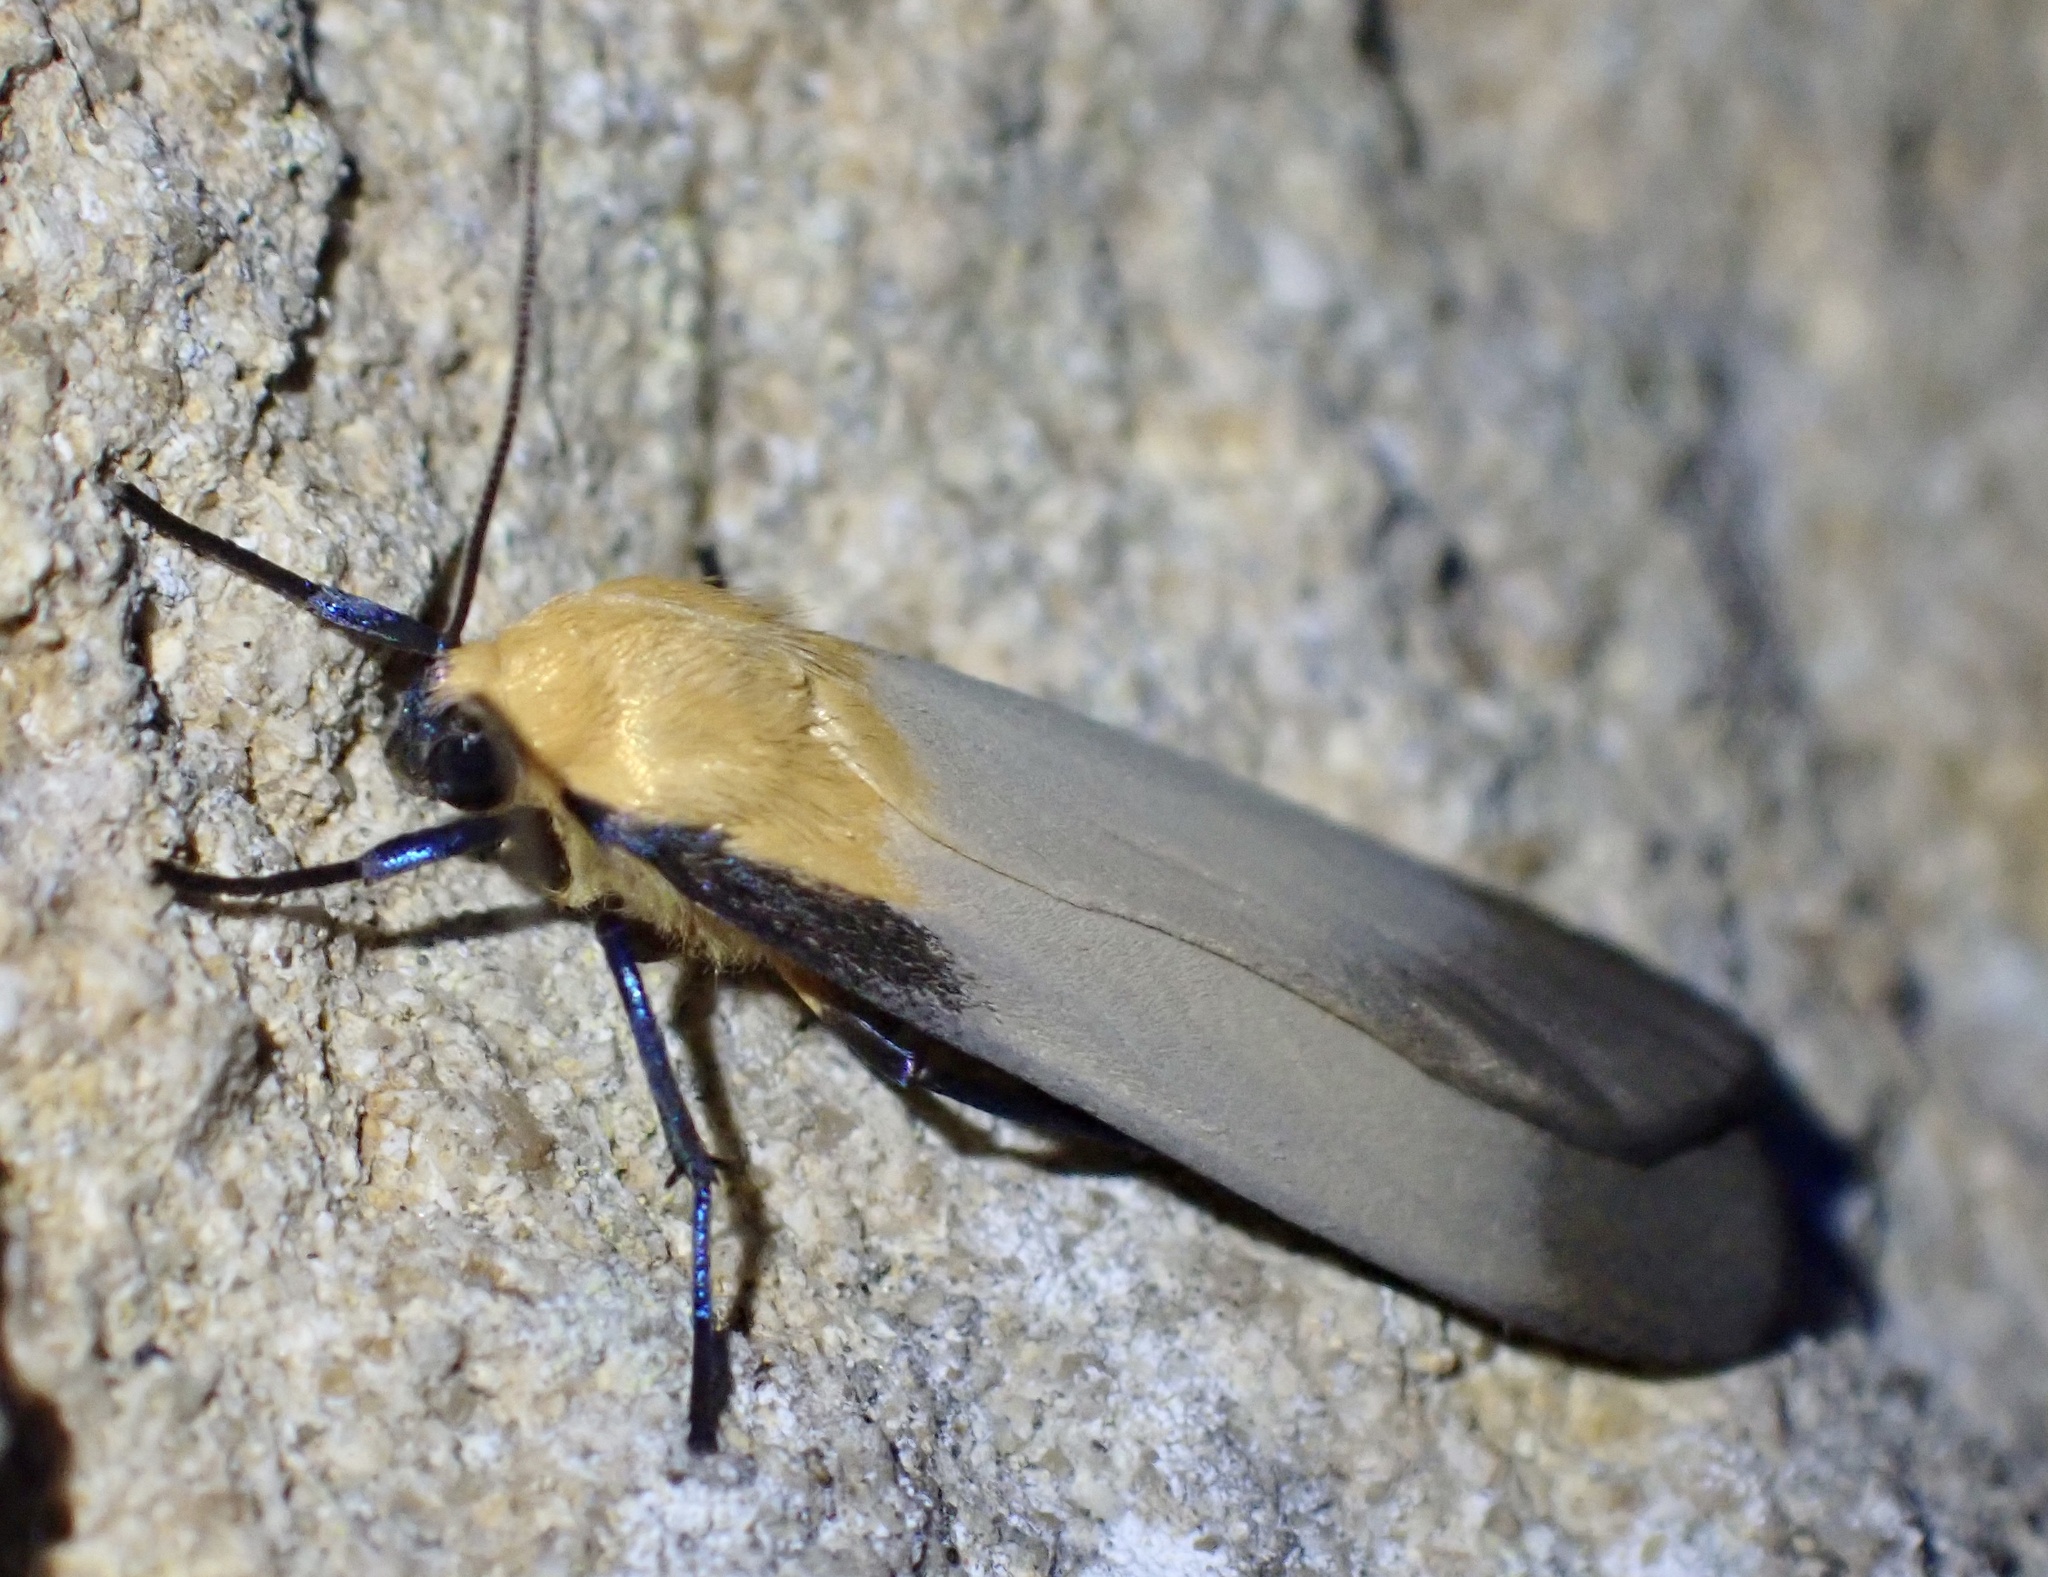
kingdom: Animalia
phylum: Arthropoda
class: Insecta
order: Lepidoptera
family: Erebidae
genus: Lithosia
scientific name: Lithosia quadra
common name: Four-spotted footman
